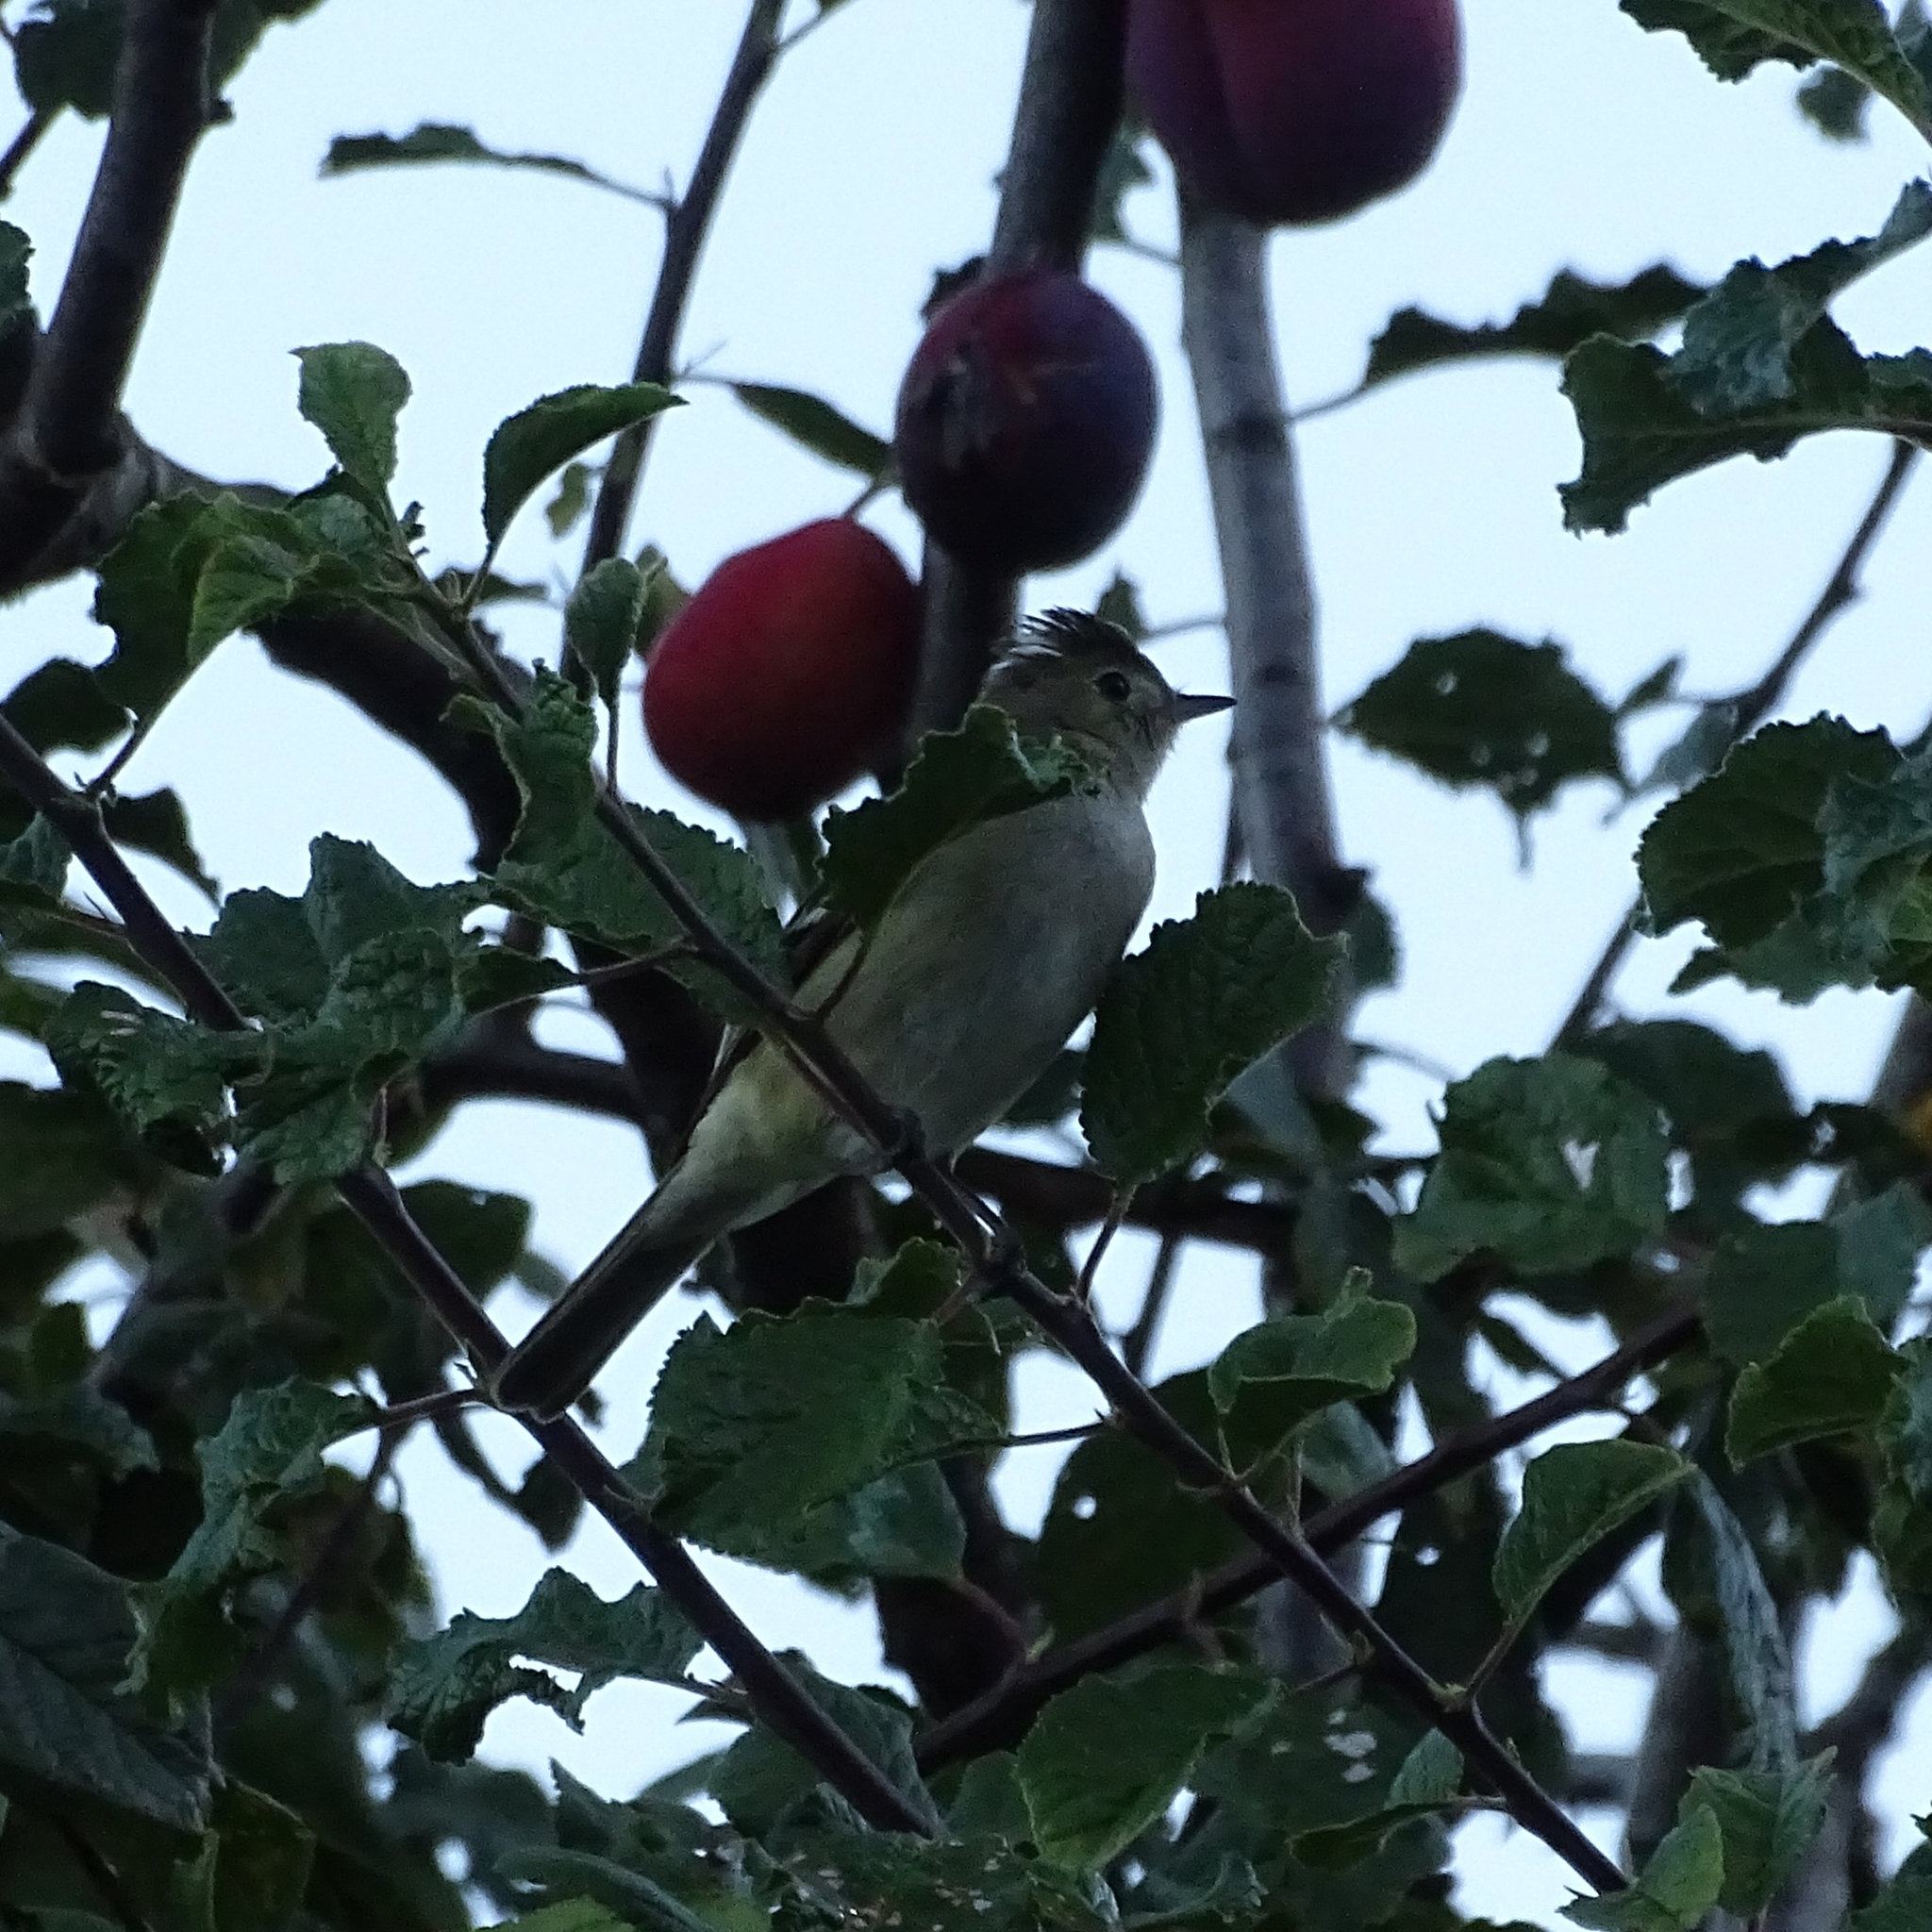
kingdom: Animalia
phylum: Chordata
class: Aves
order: Passeriformes
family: Tyrannidae
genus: Elaenia
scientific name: Elaenia albiceps
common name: White-crested elaenia
